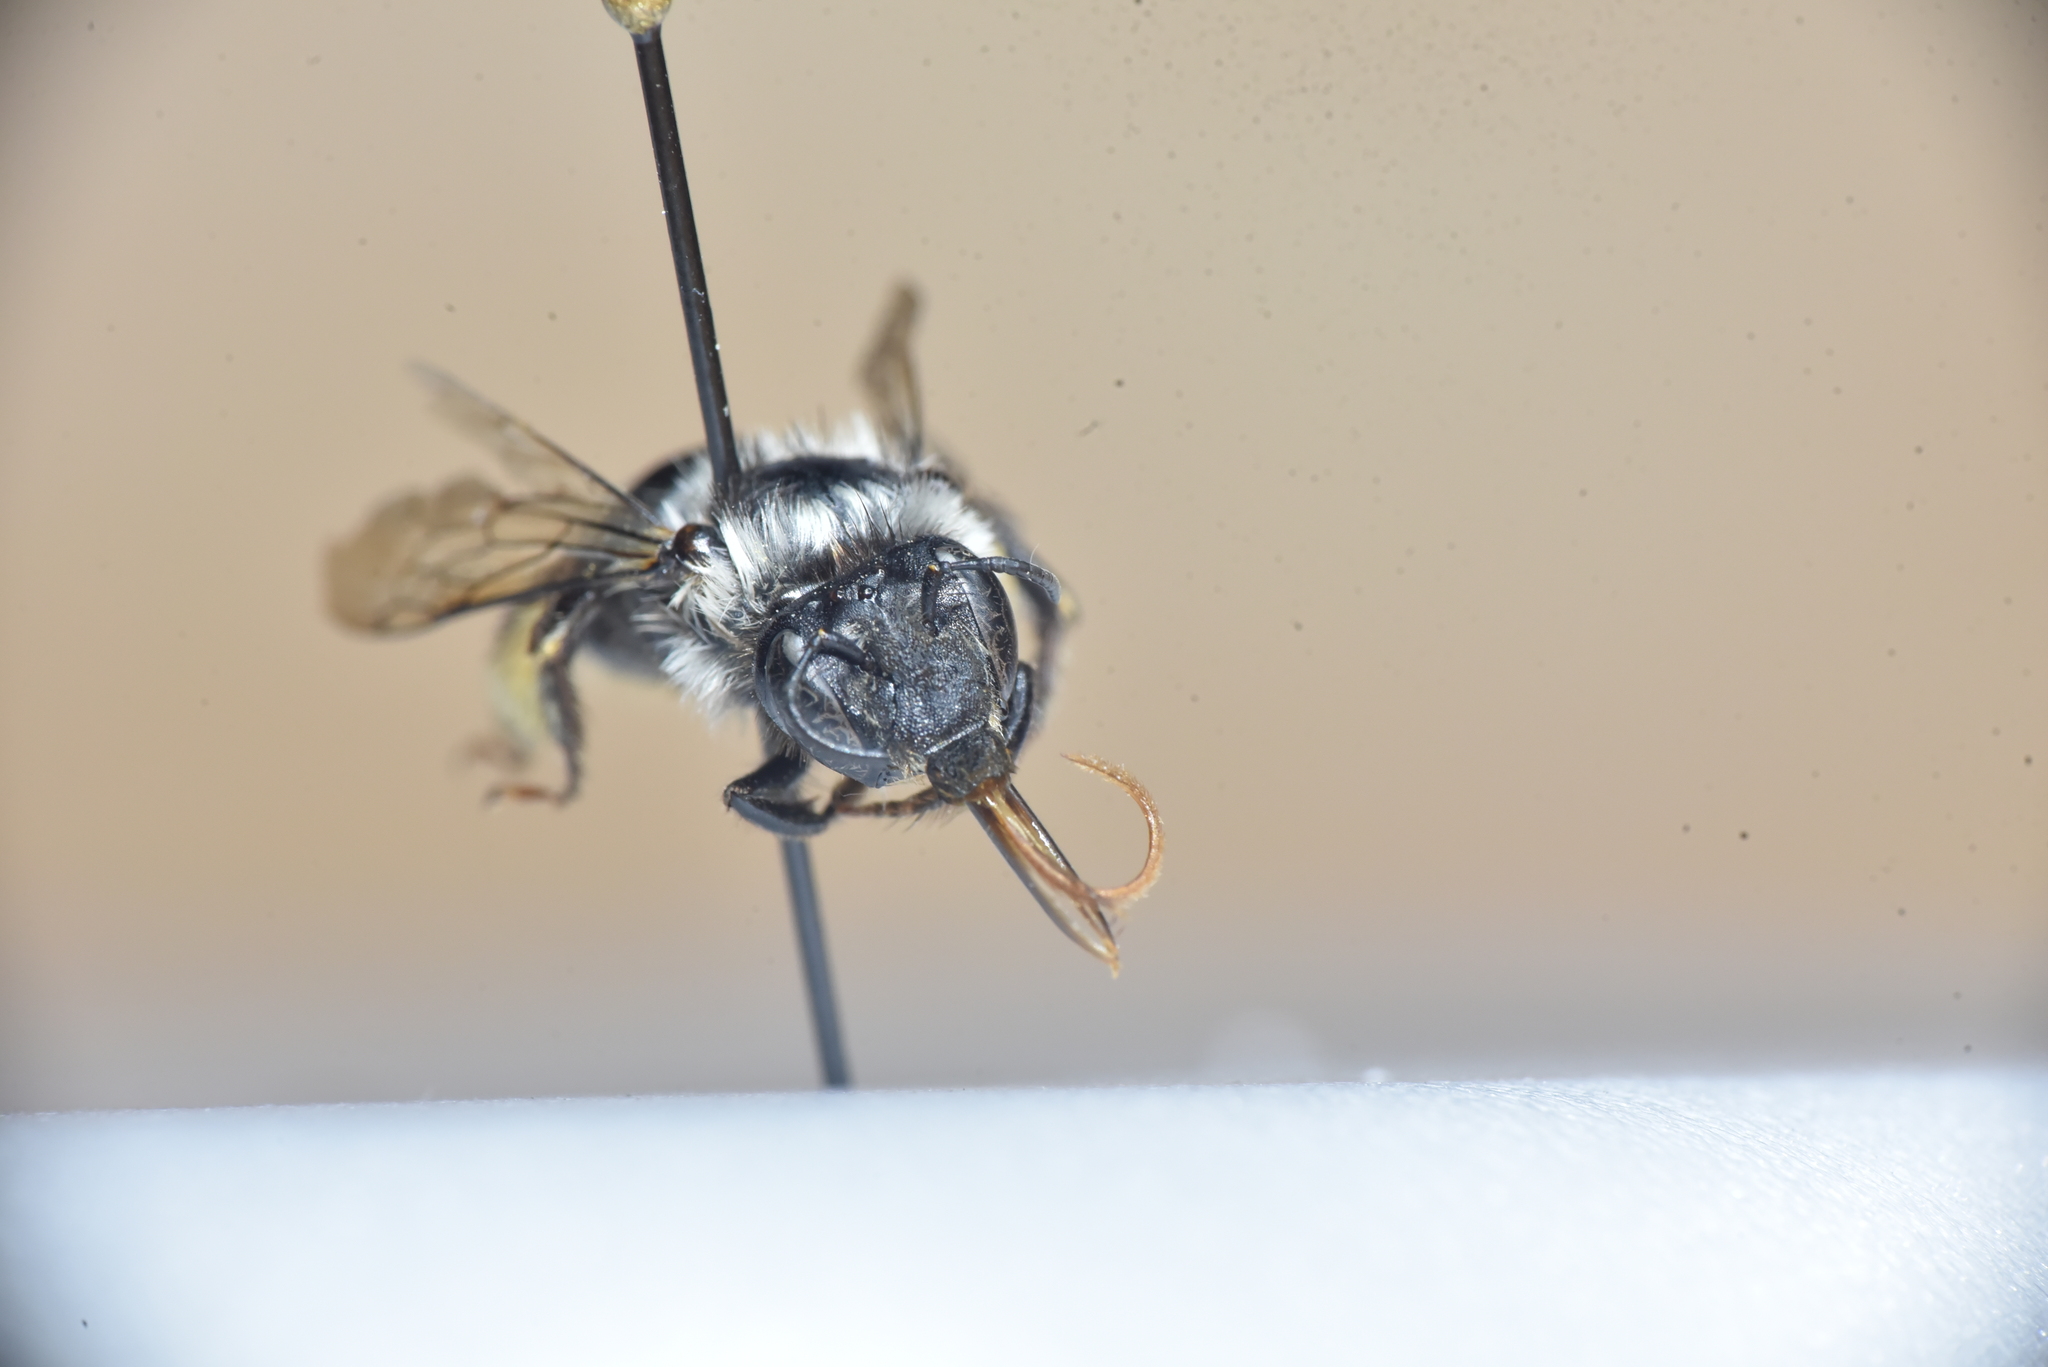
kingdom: Animalia
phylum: Arthropoda
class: Insecta
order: Hymenoptera
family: Apidae
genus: Anthophora
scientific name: Anthophora terminalis
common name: Orange-tipped wood-digger bee
